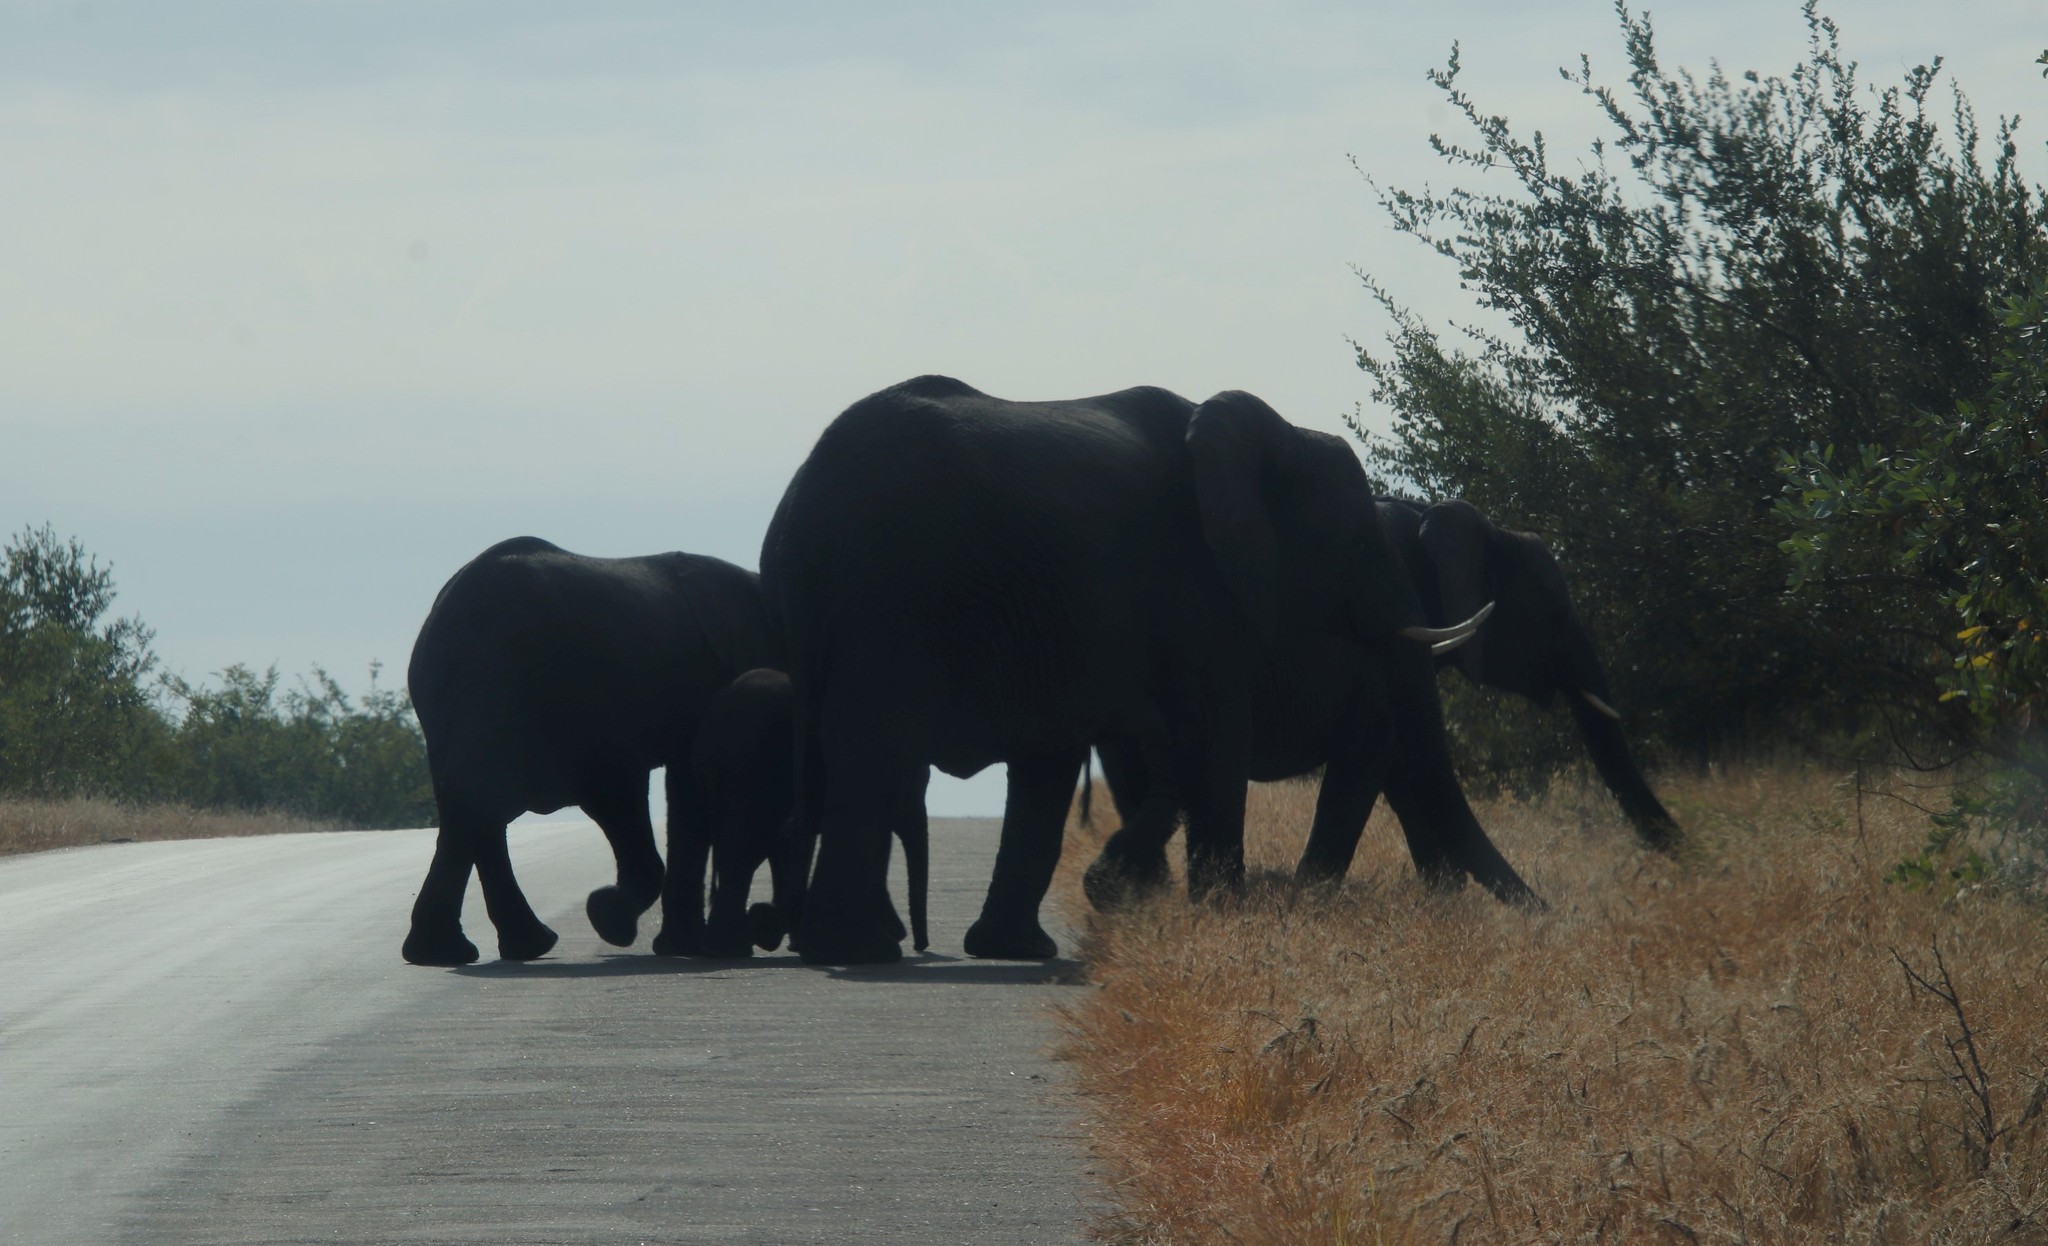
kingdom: Animalia
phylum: Chordata
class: Mammalia
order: Proboscidea
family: Elephantidae
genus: Loxodonta
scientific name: Loxodonta africana
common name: African elephant
